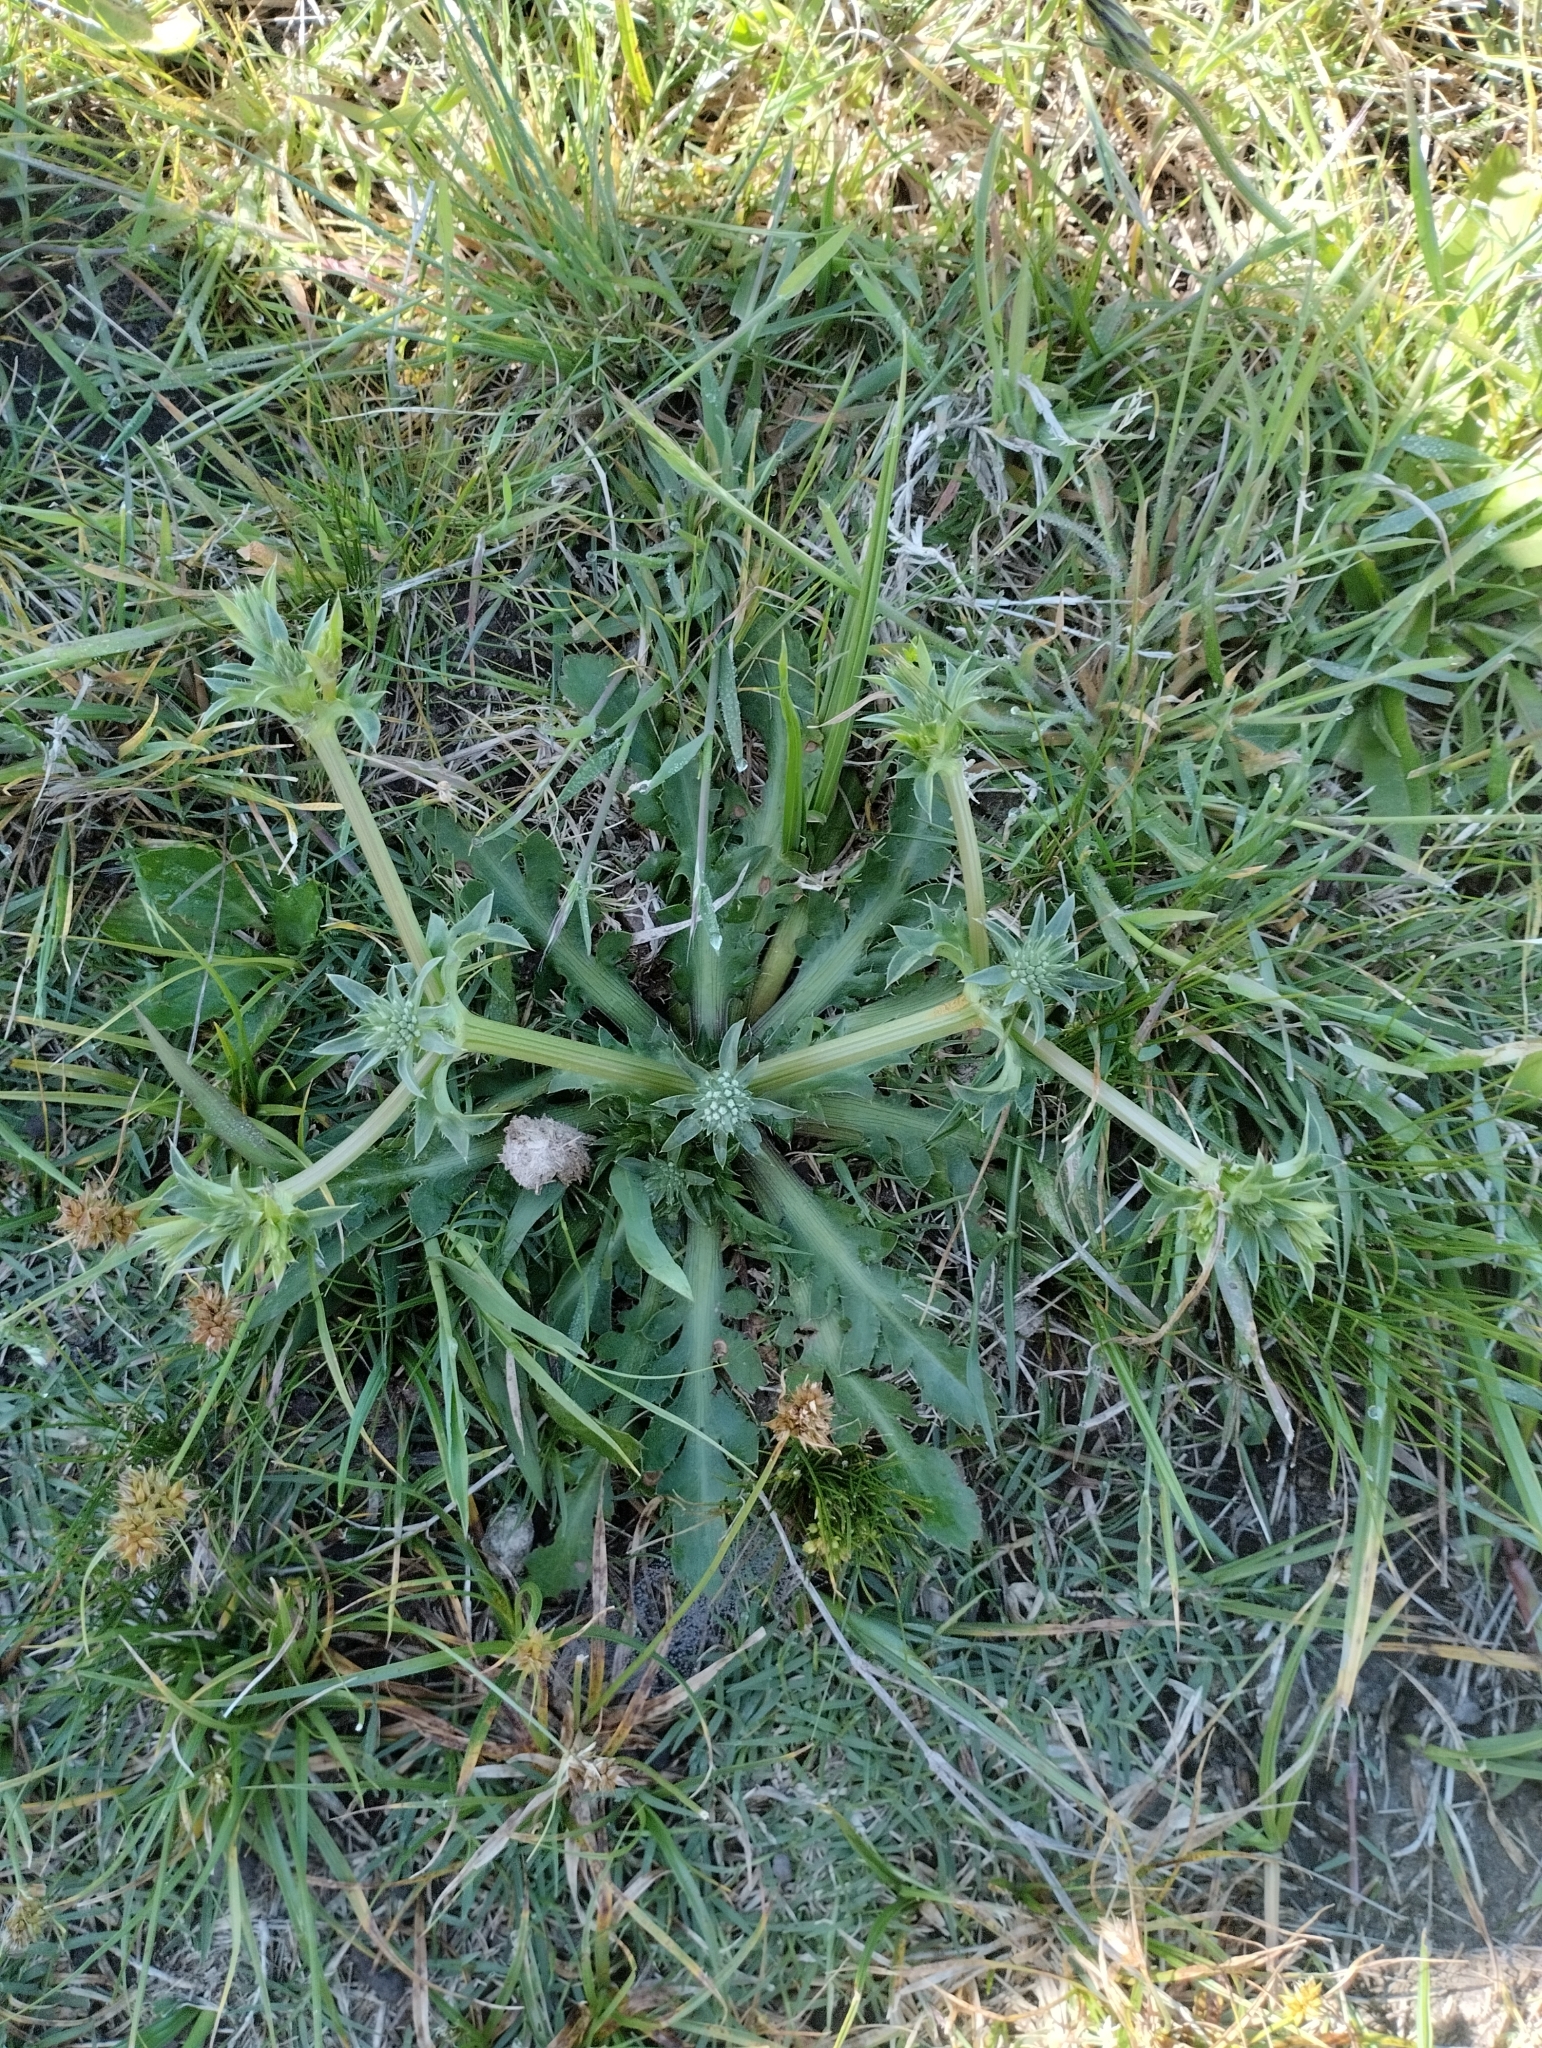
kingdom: Plantae
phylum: Tracheophyta
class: Magnoliopsida
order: Apiales
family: Apiaceae
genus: Eryngium
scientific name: Eryngium nudicaule
